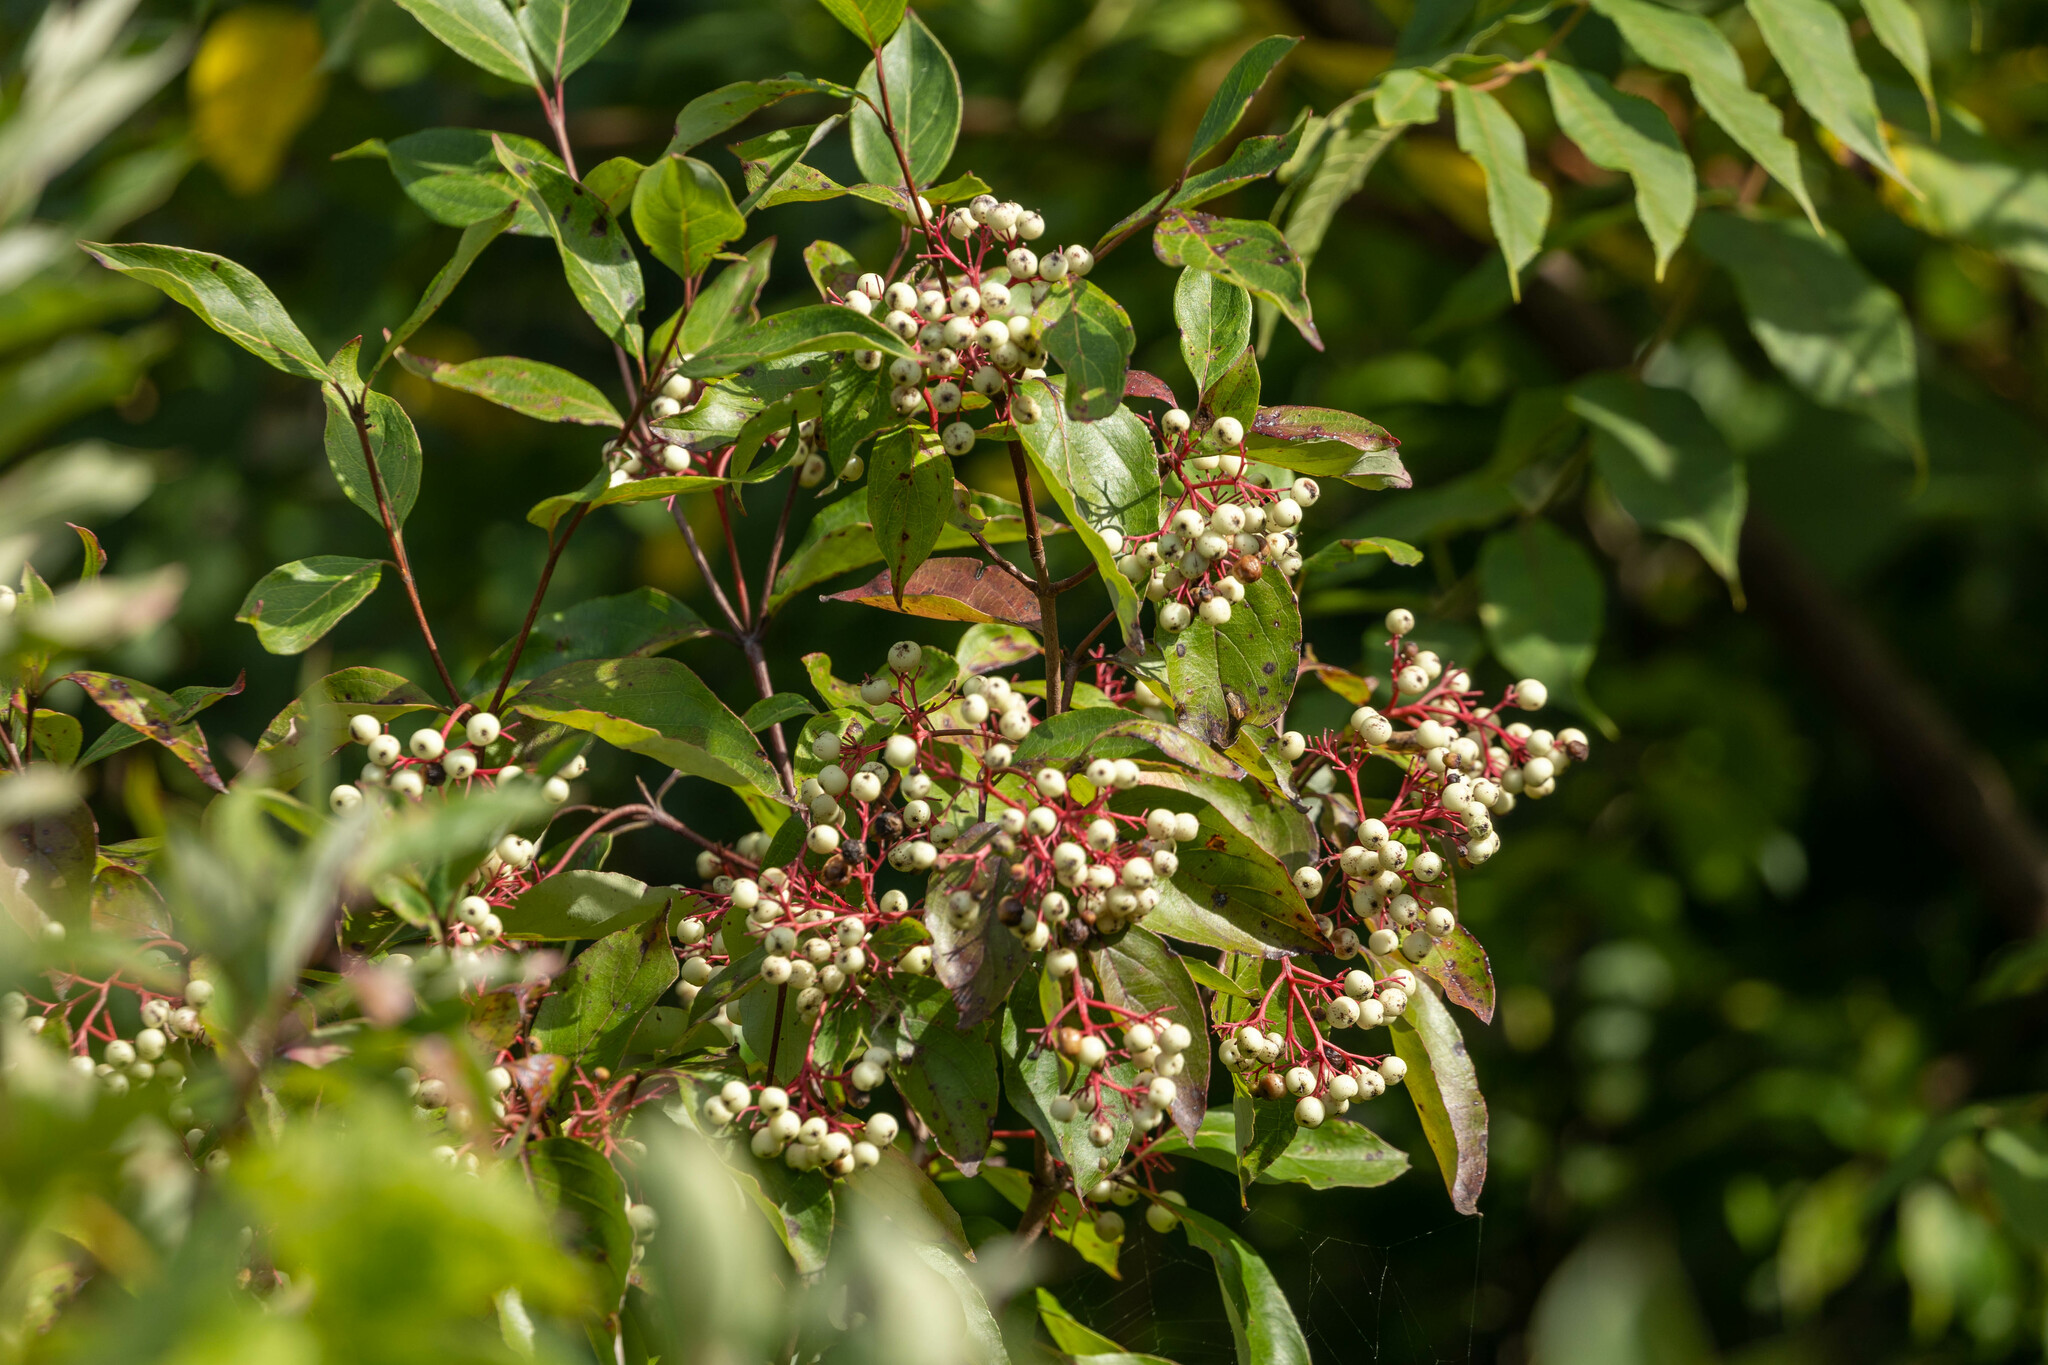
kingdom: Plantae
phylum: Tracheophyta
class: Magnoliopsida
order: Cornales
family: Cornaceae
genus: Cornus
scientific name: Cornus racemosa
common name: Panicled dogwood
